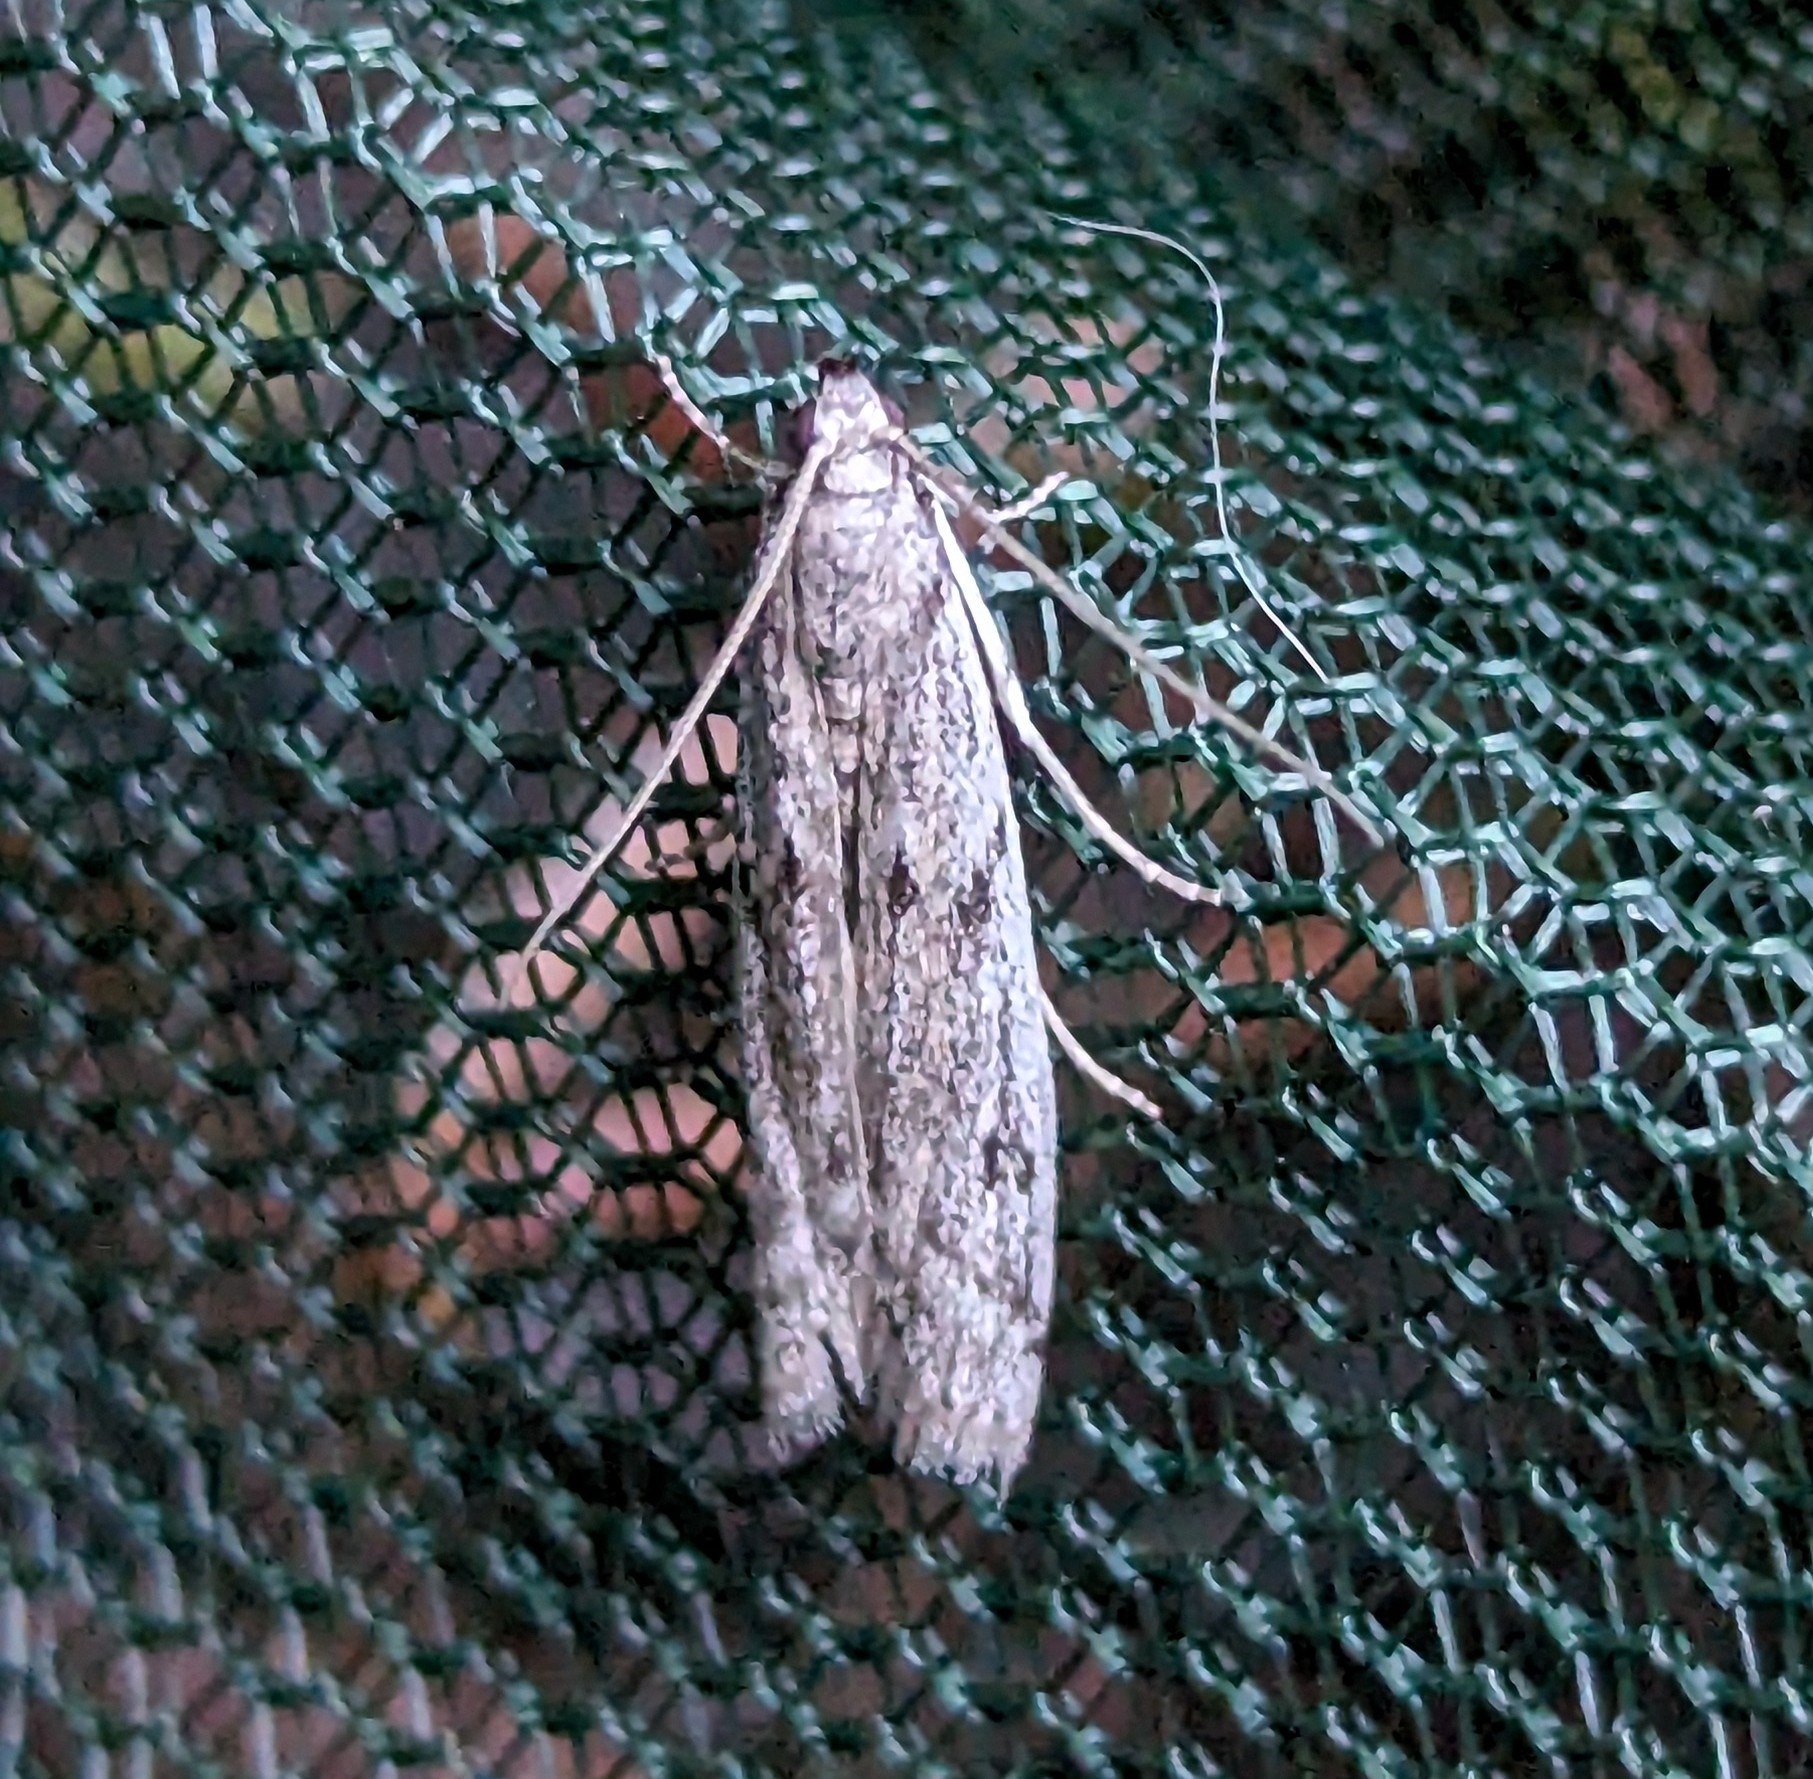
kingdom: Animalia
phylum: Arthropoda
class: Insecta
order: Lepidoptera
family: Pyralidae
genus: Phycitodes
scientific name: Phycitodes mucidellus
